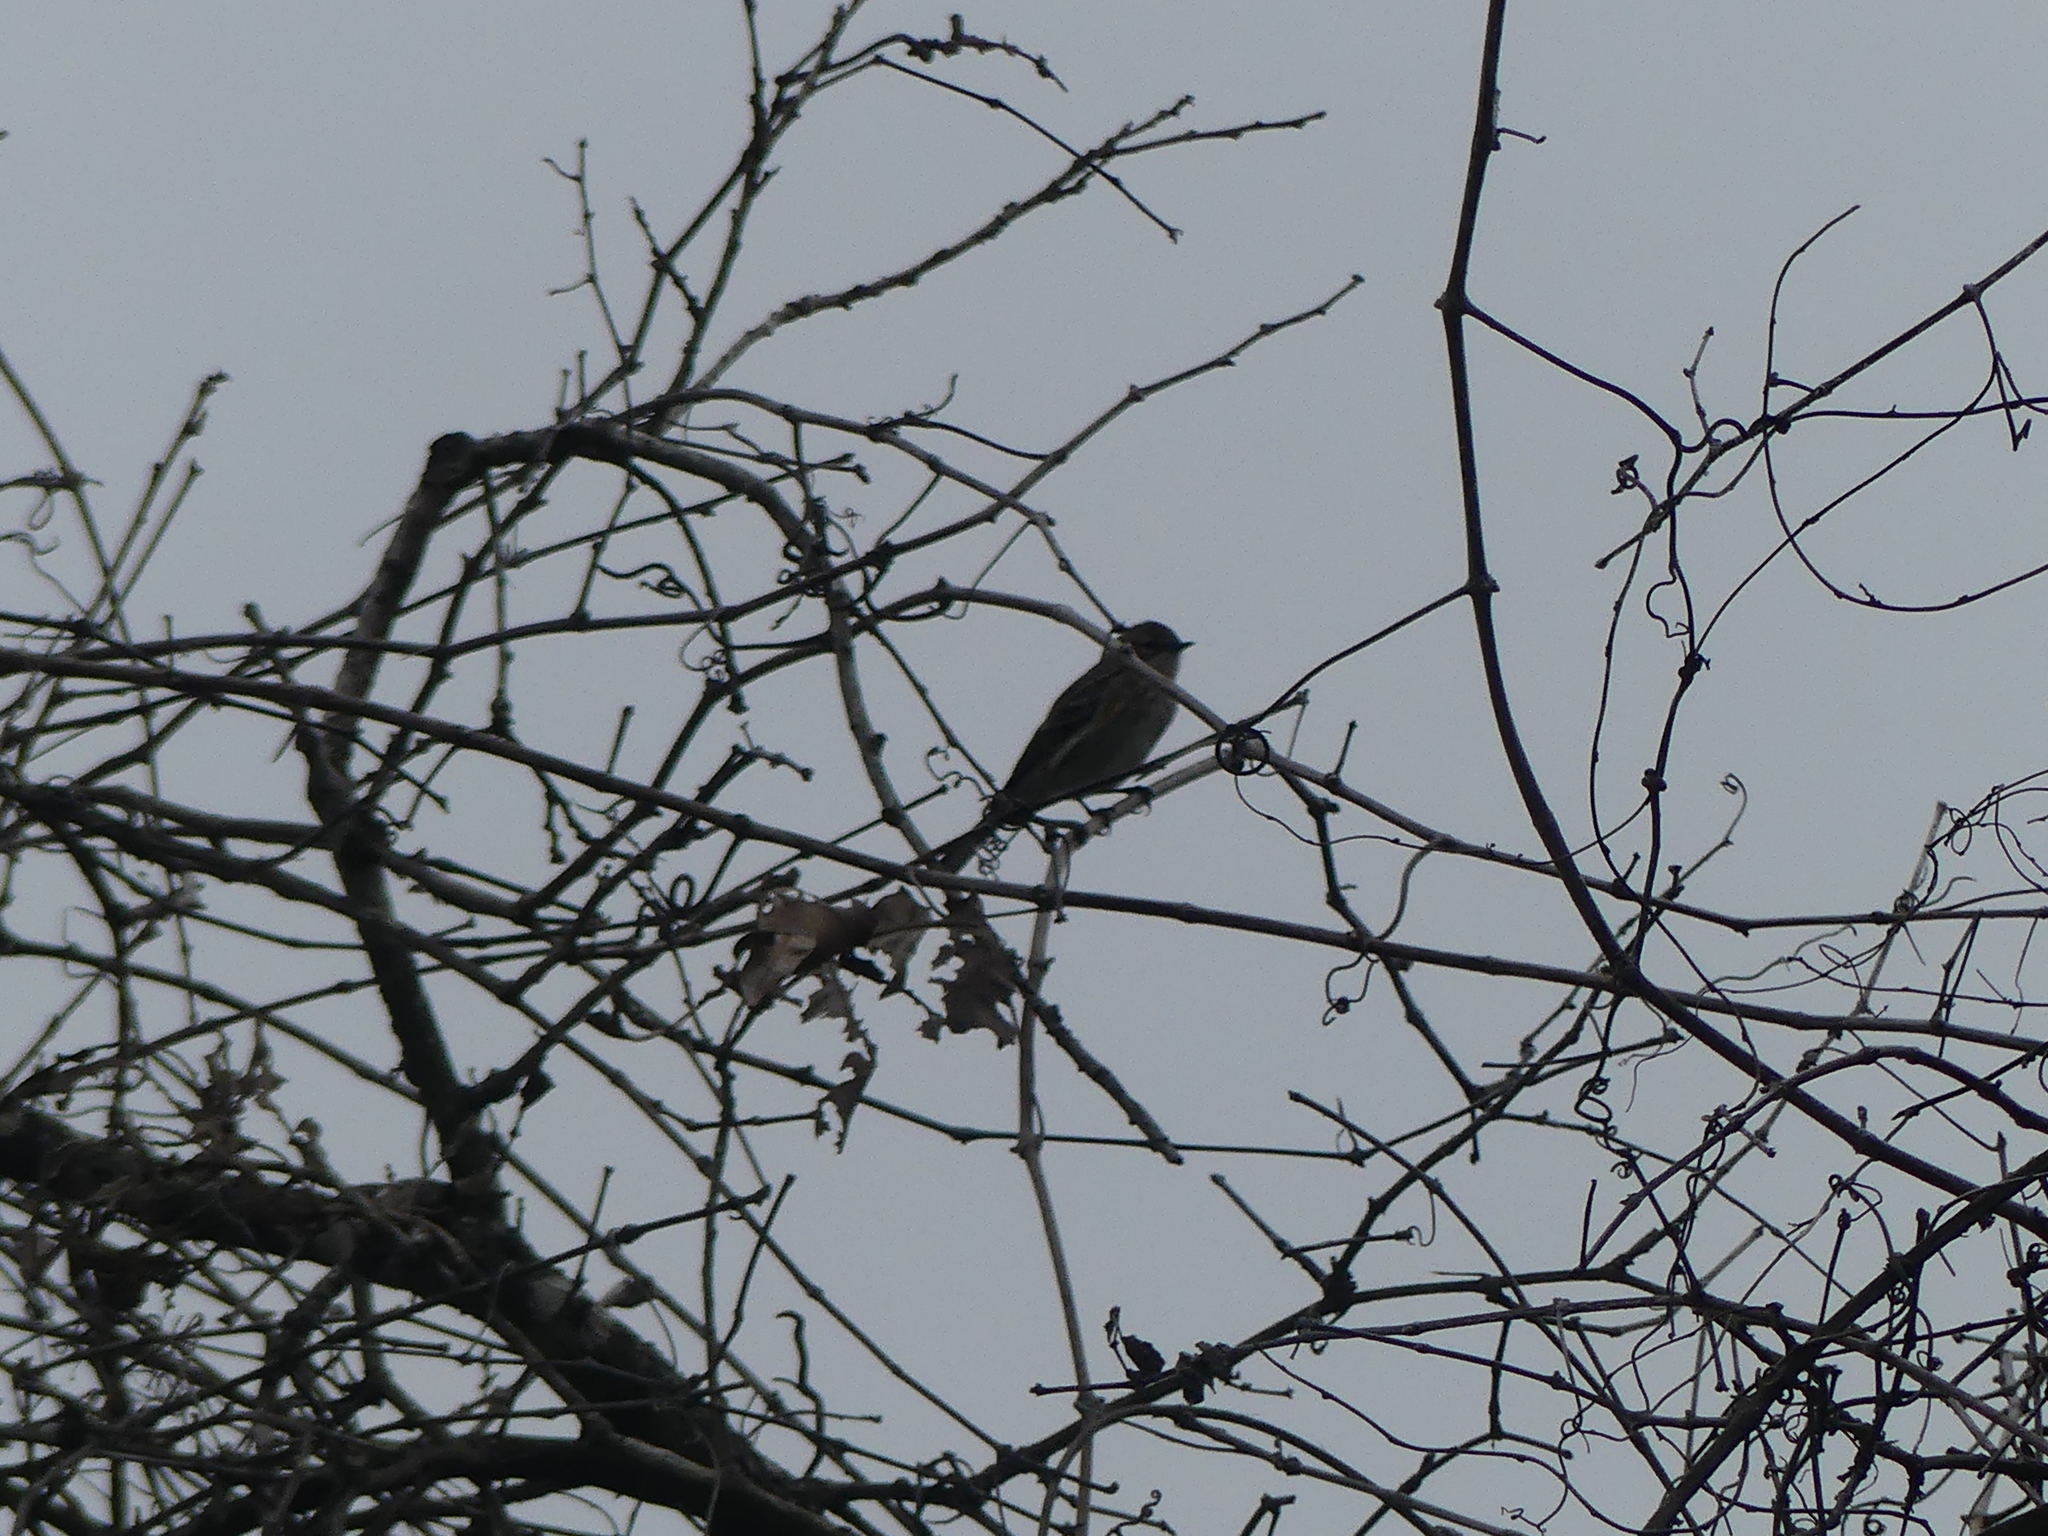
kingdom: Animalia
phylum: Chordata
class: Aves
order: Passeriformes
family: Parulidae
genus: Setophaga
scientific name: Setophaga coronata
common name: Myrtle warbler
